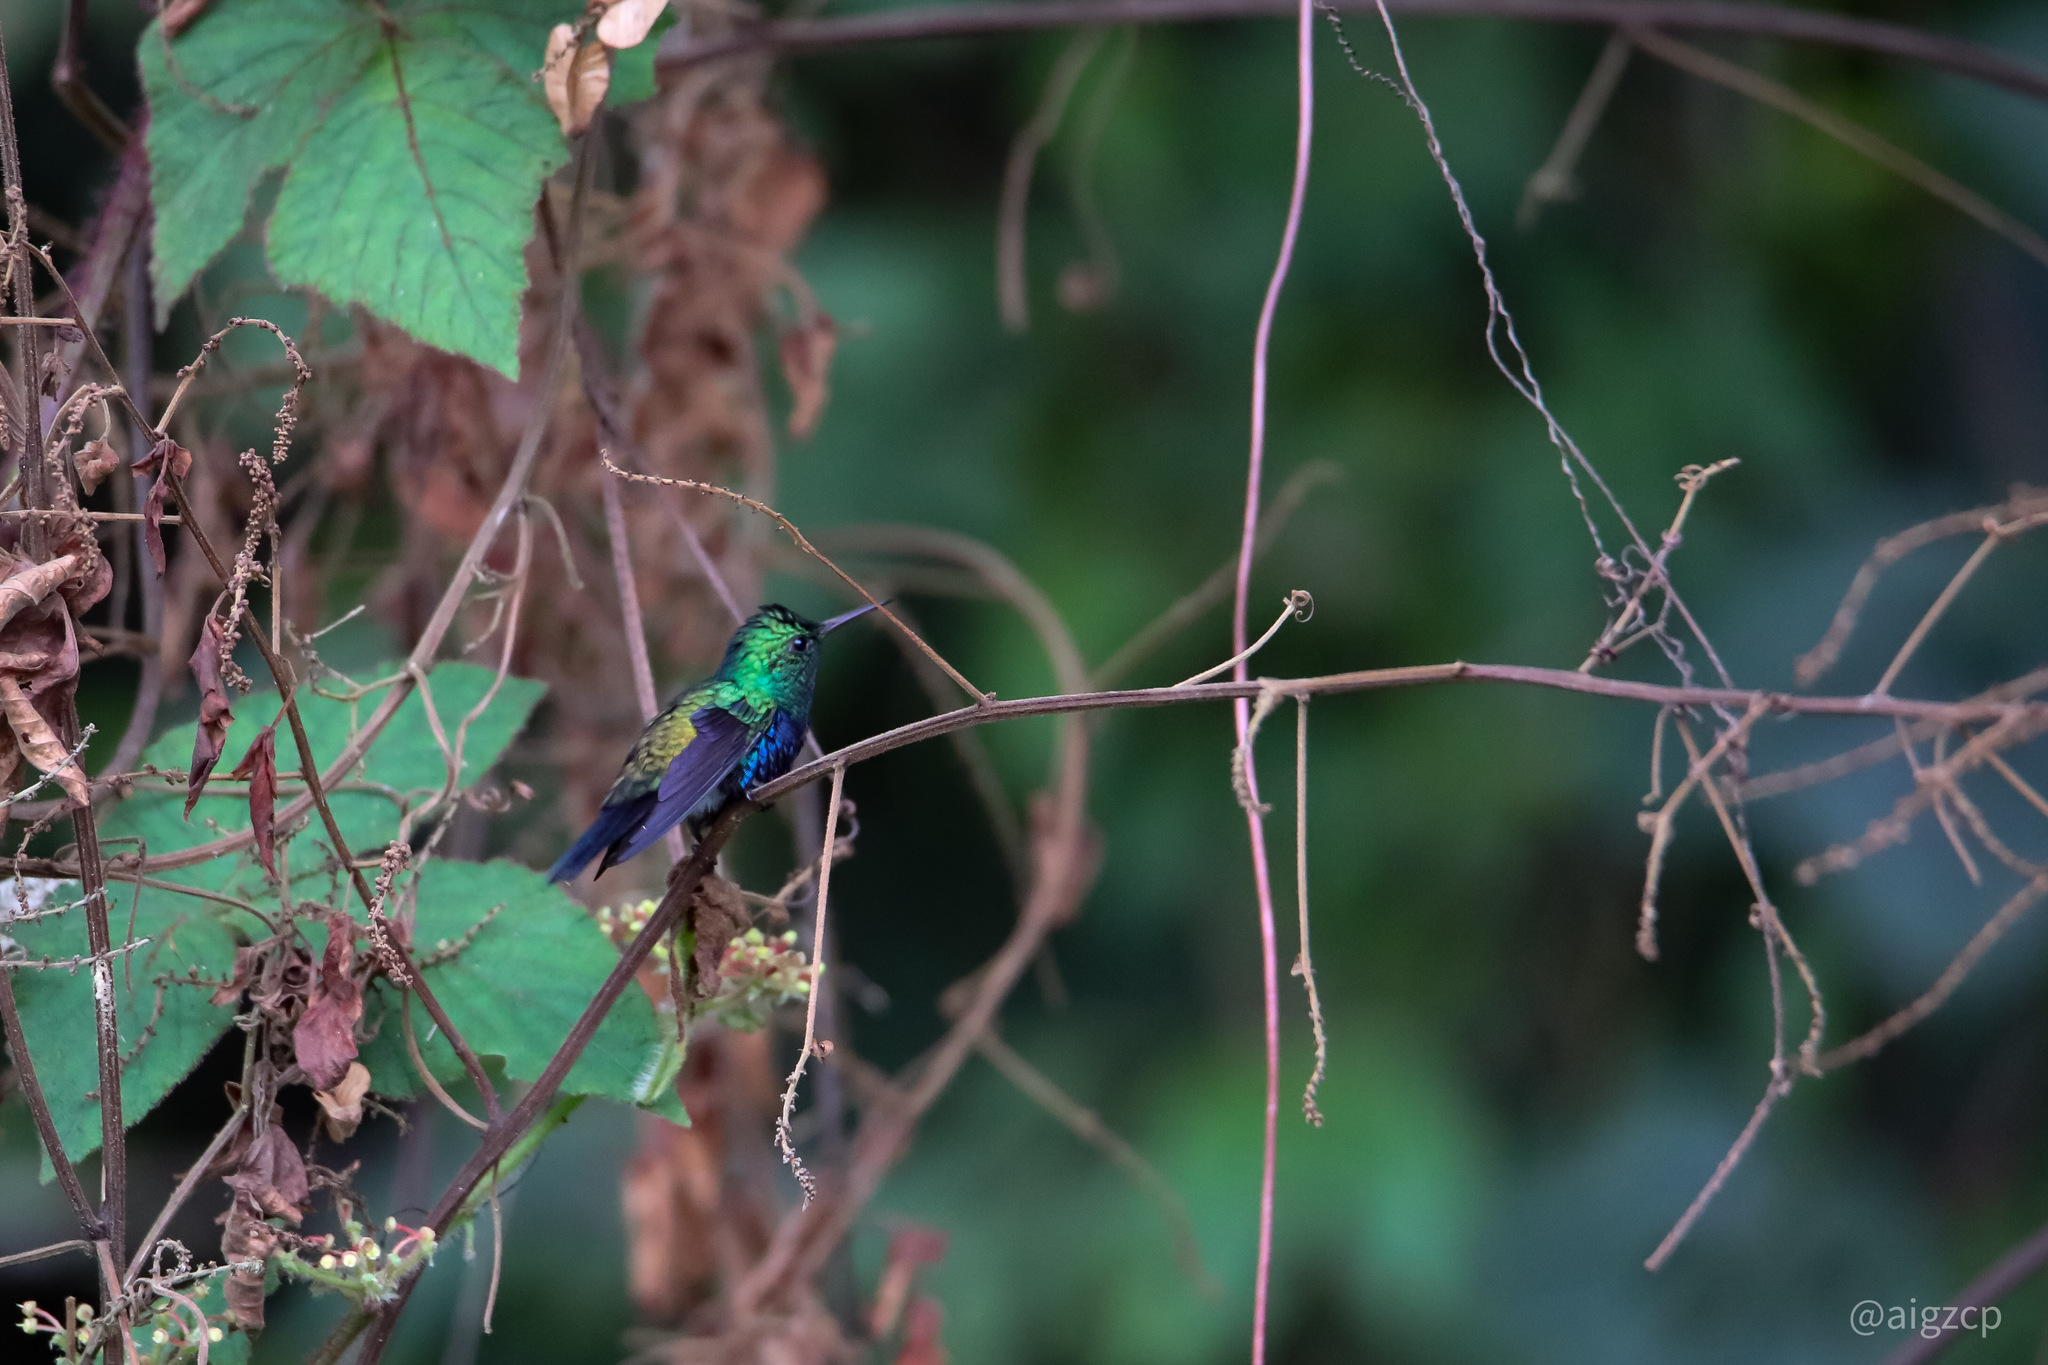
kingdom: Animalia
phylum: Chordata
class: Aves
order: Apodiformes
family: Trochilidae
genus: Chlorestes
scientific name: Chlorestes julie
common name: Violet-bellied hummingbird
